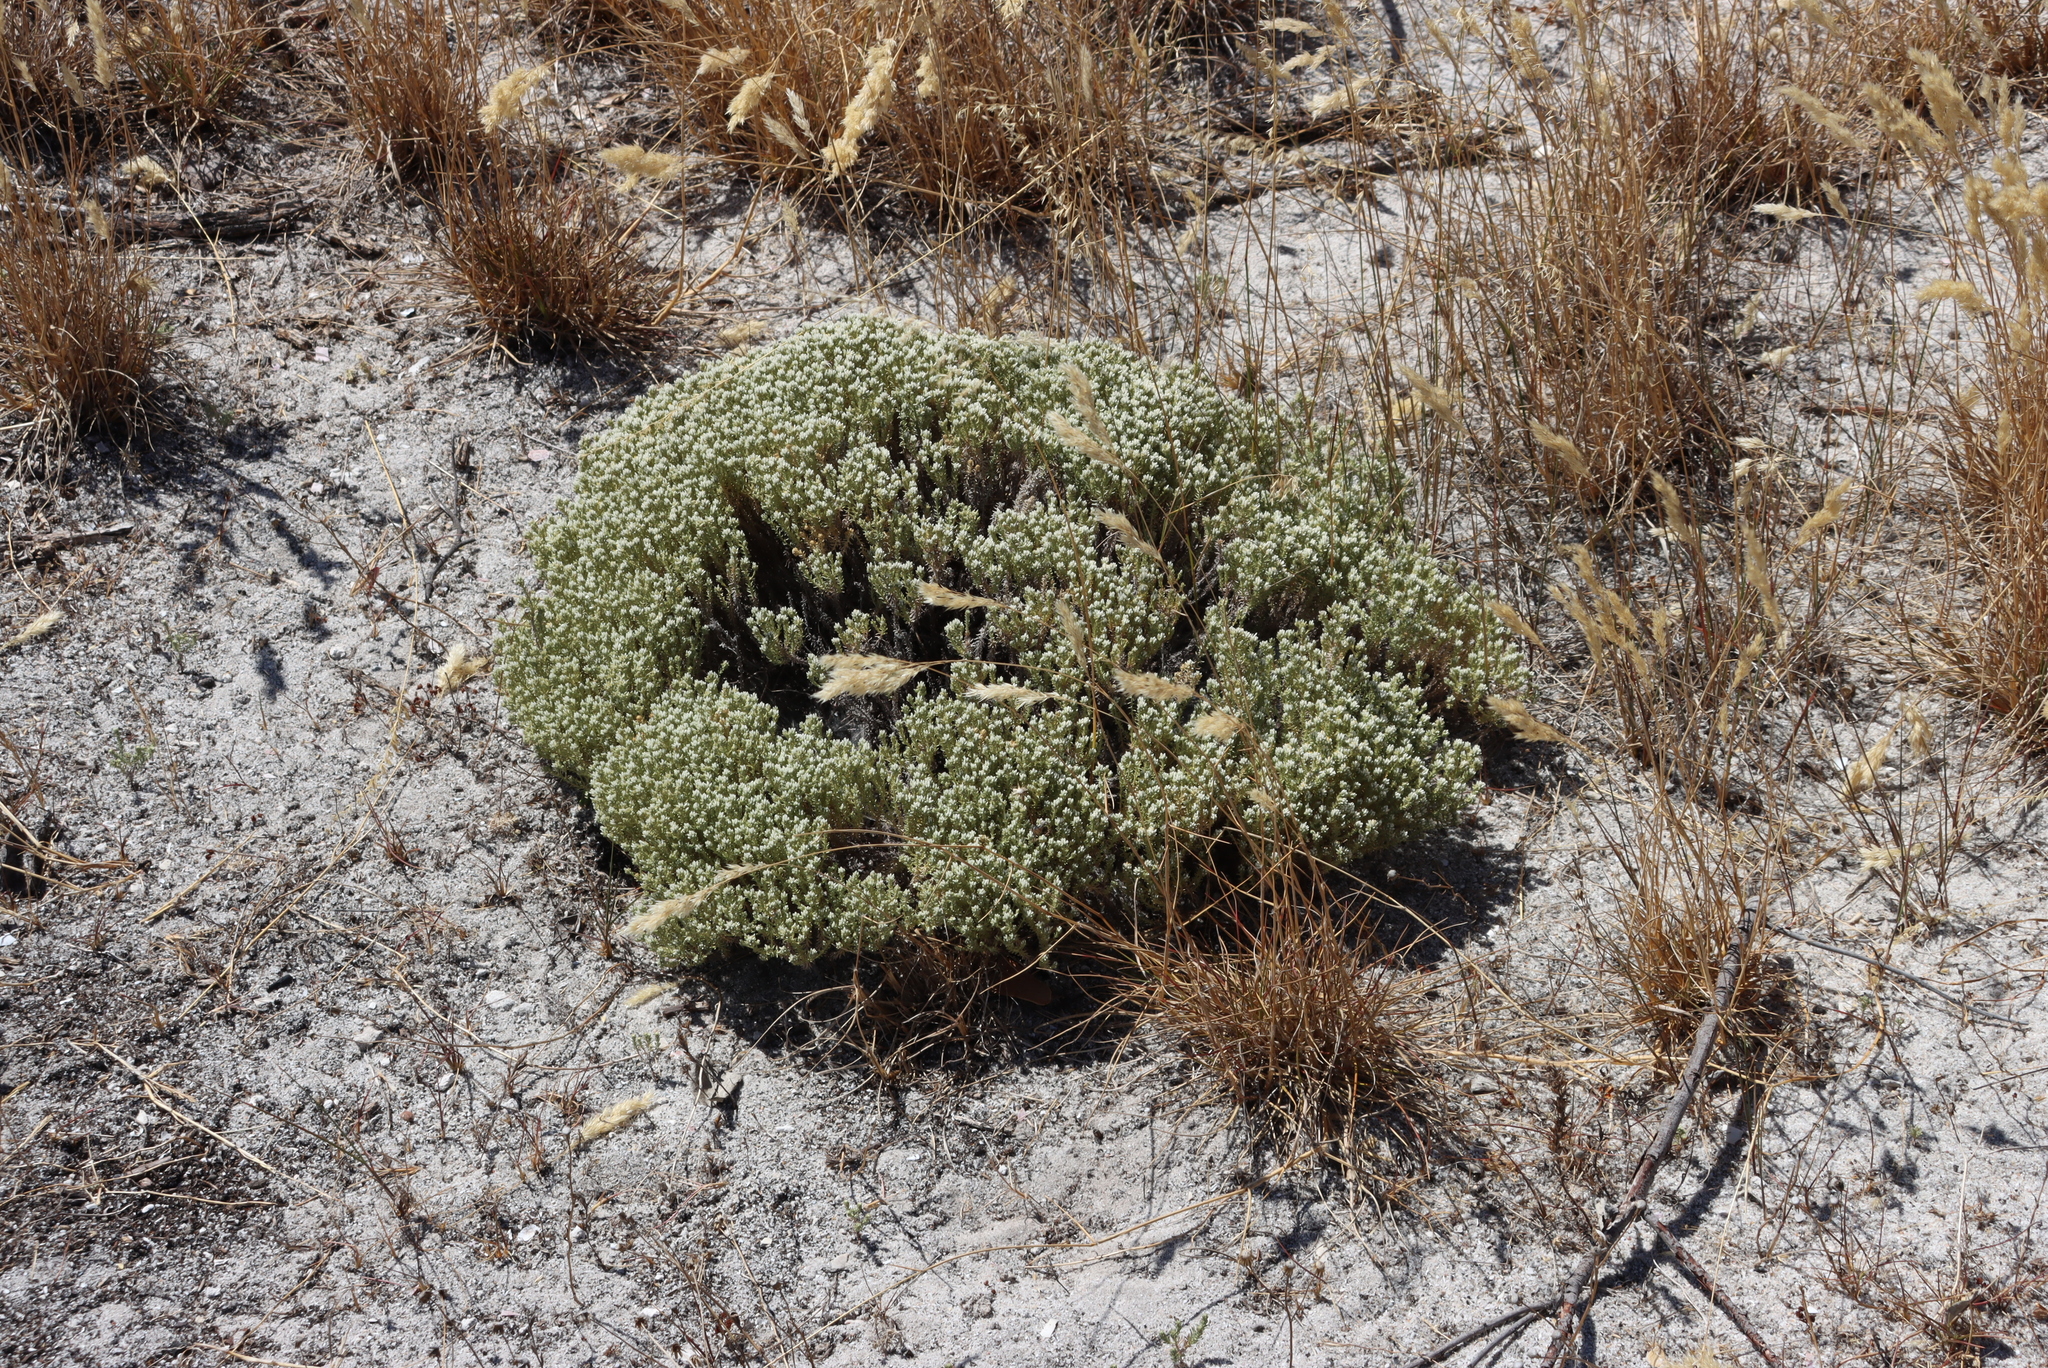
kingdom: Plantae
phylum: Tracheophyta
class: Magnoliopsida
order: Asterales
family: Asteraceae
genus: Helichrysum
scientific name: Helichrysum niveum
